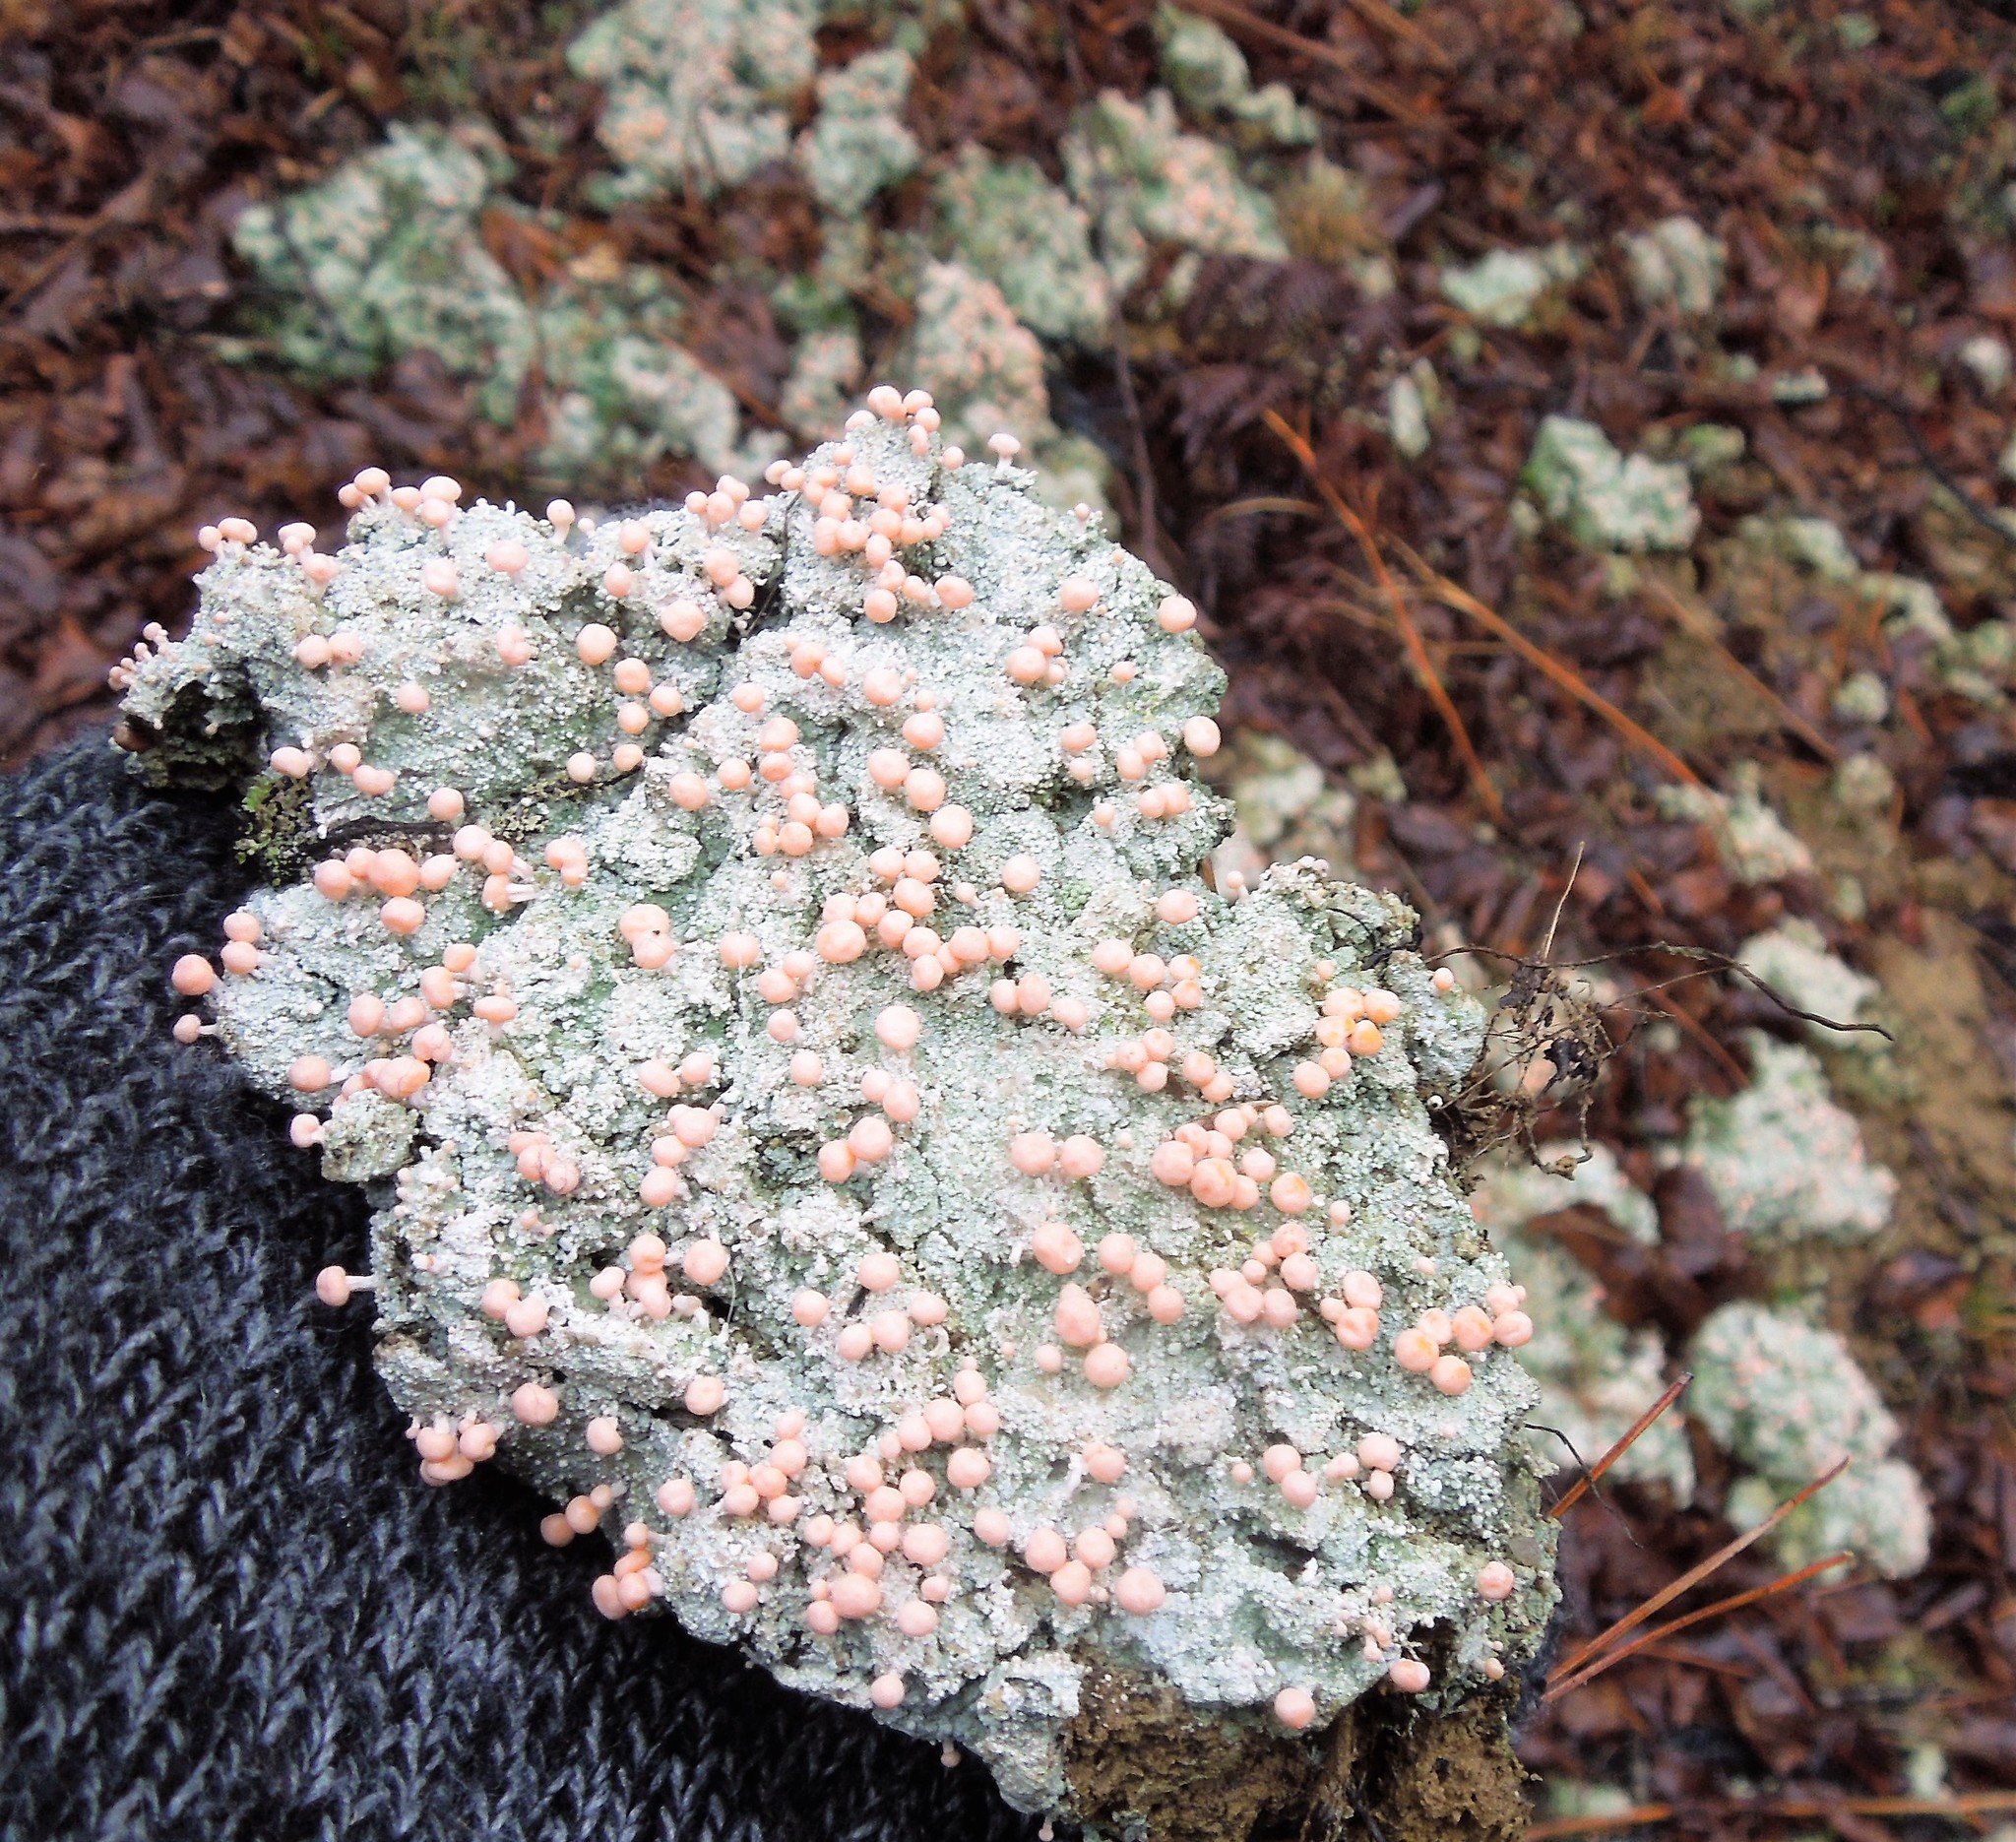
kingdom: Fungi
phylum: Ascomycota
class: Lecanoromycetes
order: Pertusariales
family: Icmadophilaceae
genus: Dibaeis
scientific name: Dibaeis baeomyces
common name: Pink earth lichen
